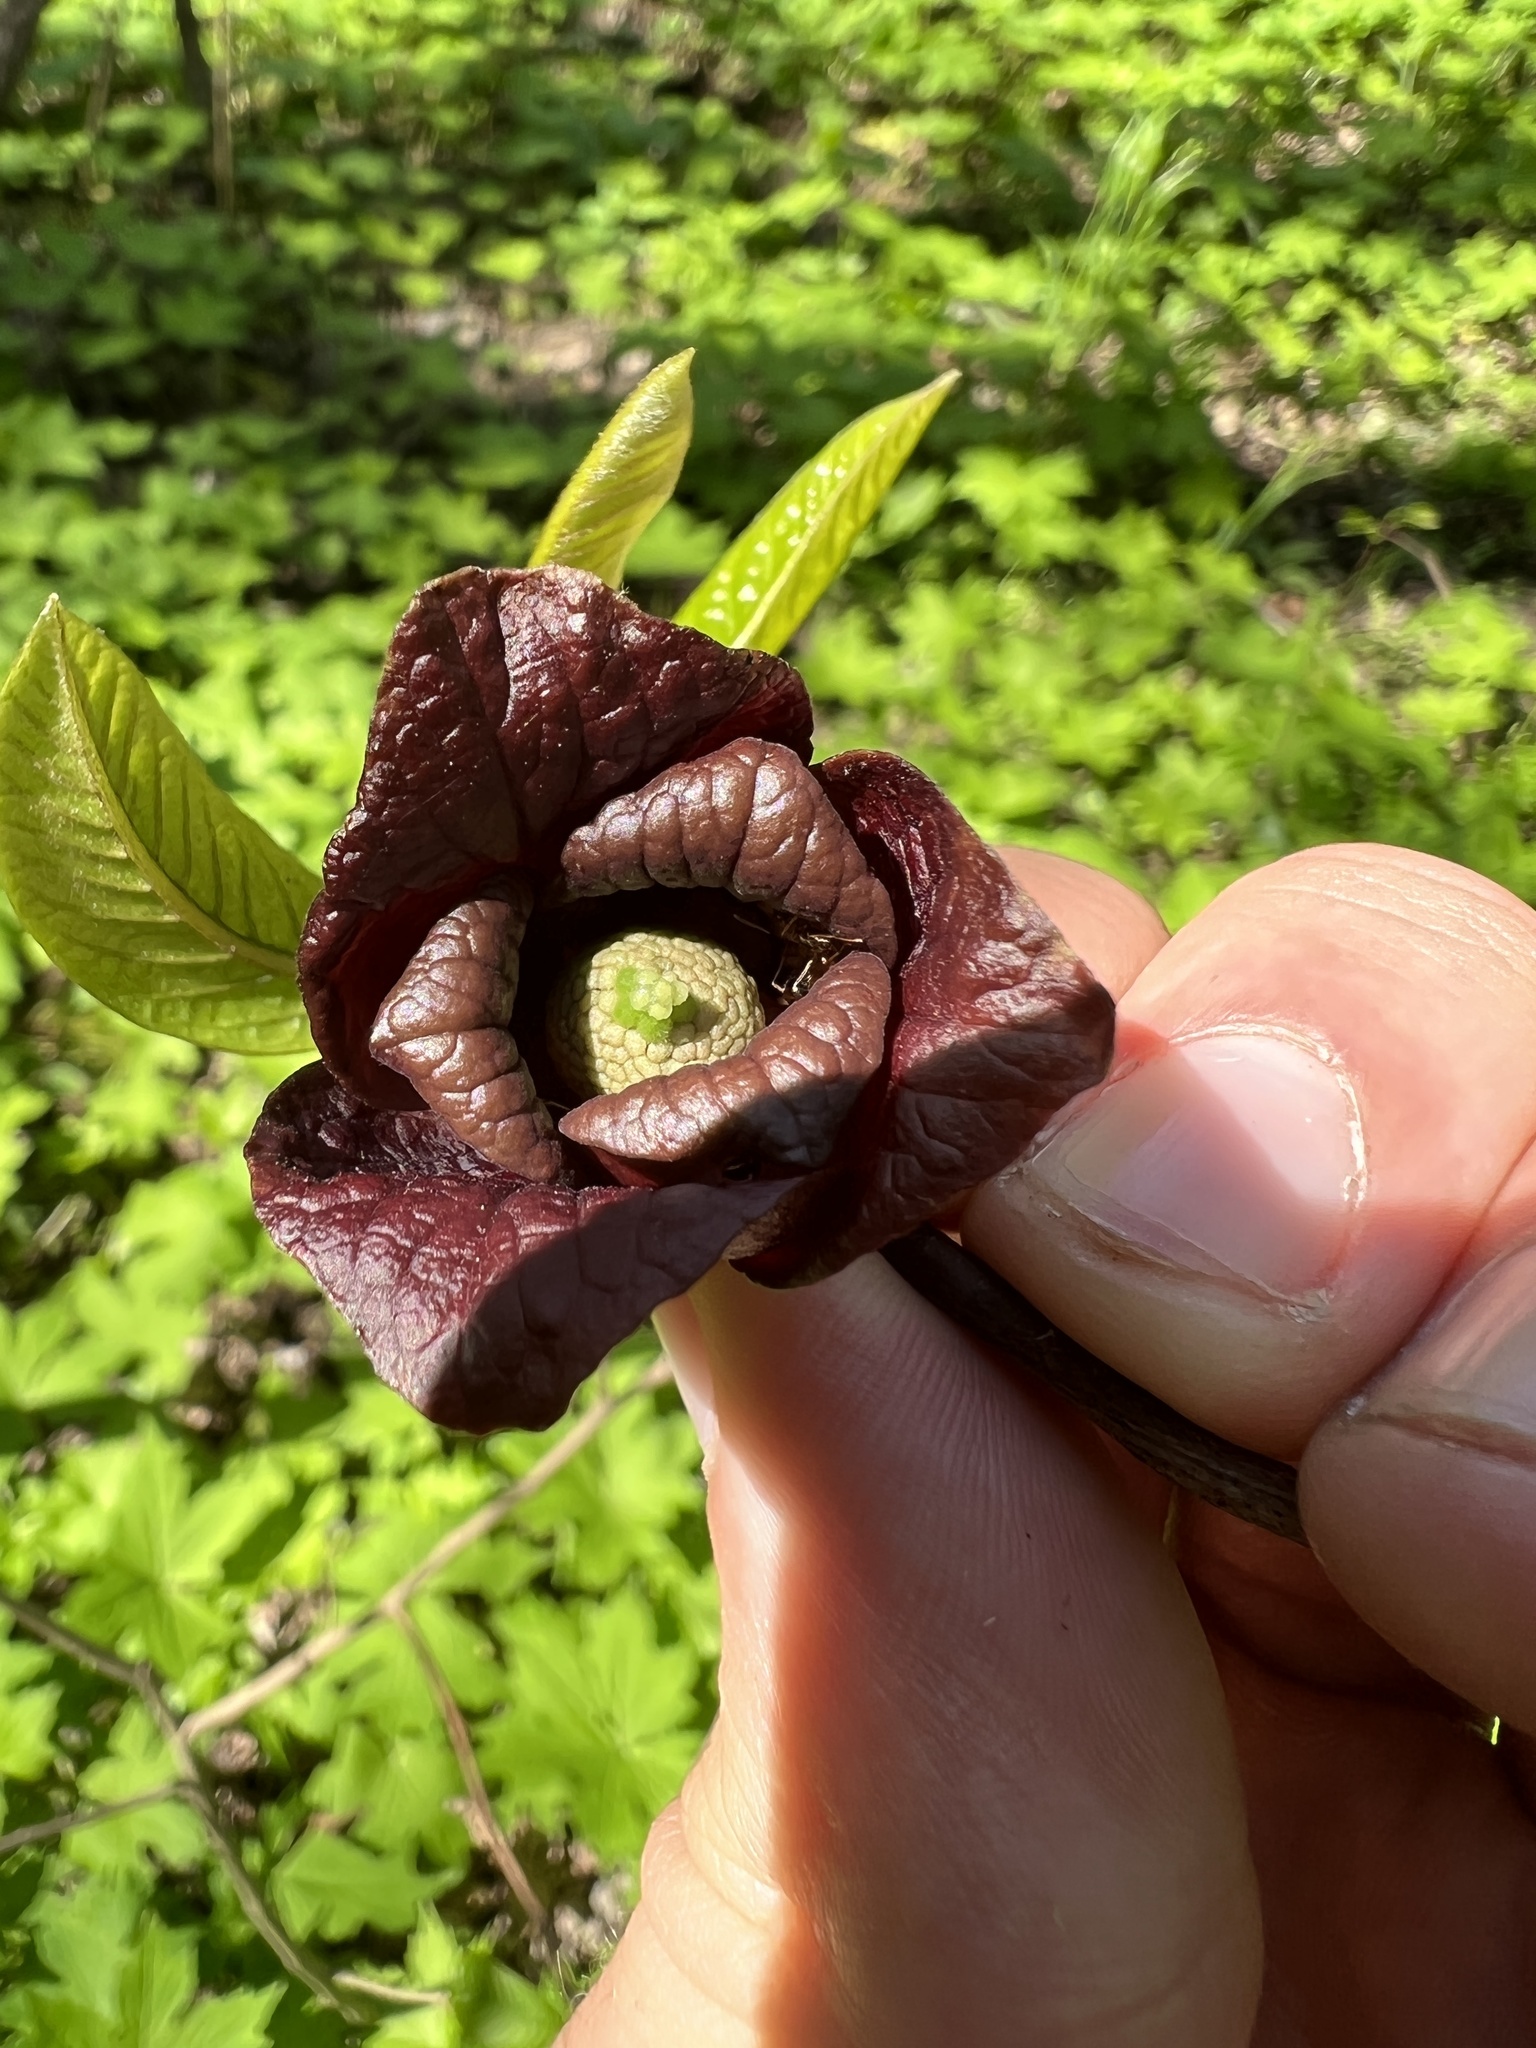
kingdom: Plantae
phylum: Tracheophyta
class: Magnoliopsida
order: Magnoliales
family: Annonaceae
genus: Asimina
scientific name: Asimina triloba
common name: Dog-banana
